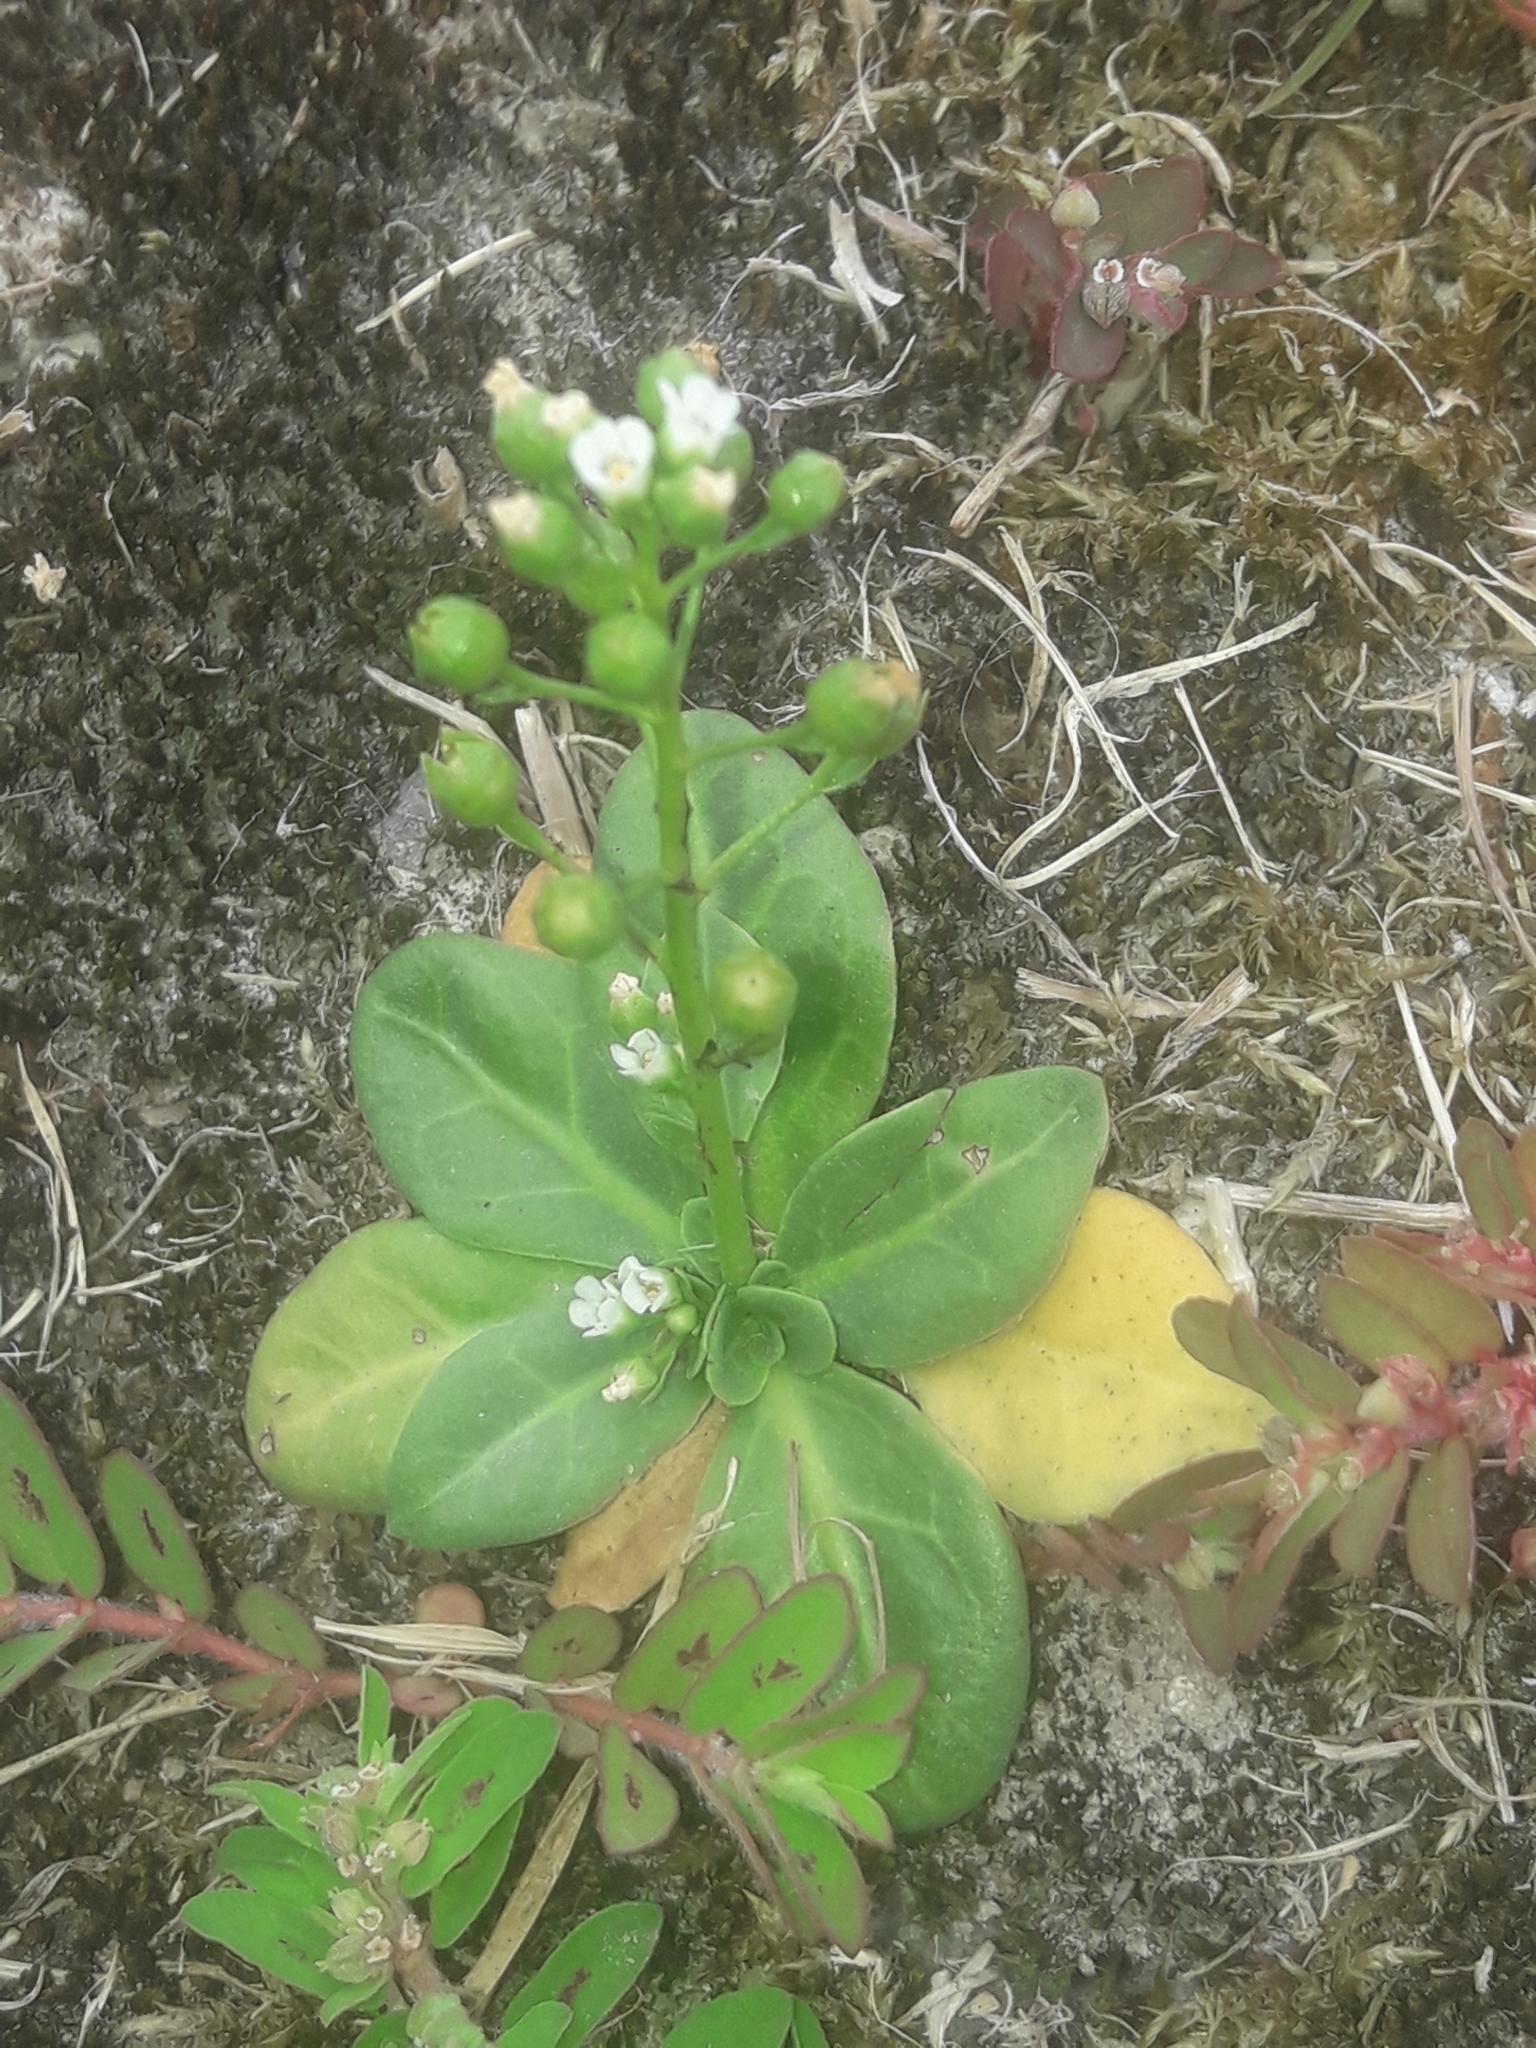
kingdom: Plantae
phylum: Tracheophyta
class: Magnoliopsida
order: Ericales
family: Primulaceae
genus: Samolus
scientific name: Samolus valerandi
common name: Brookweed
